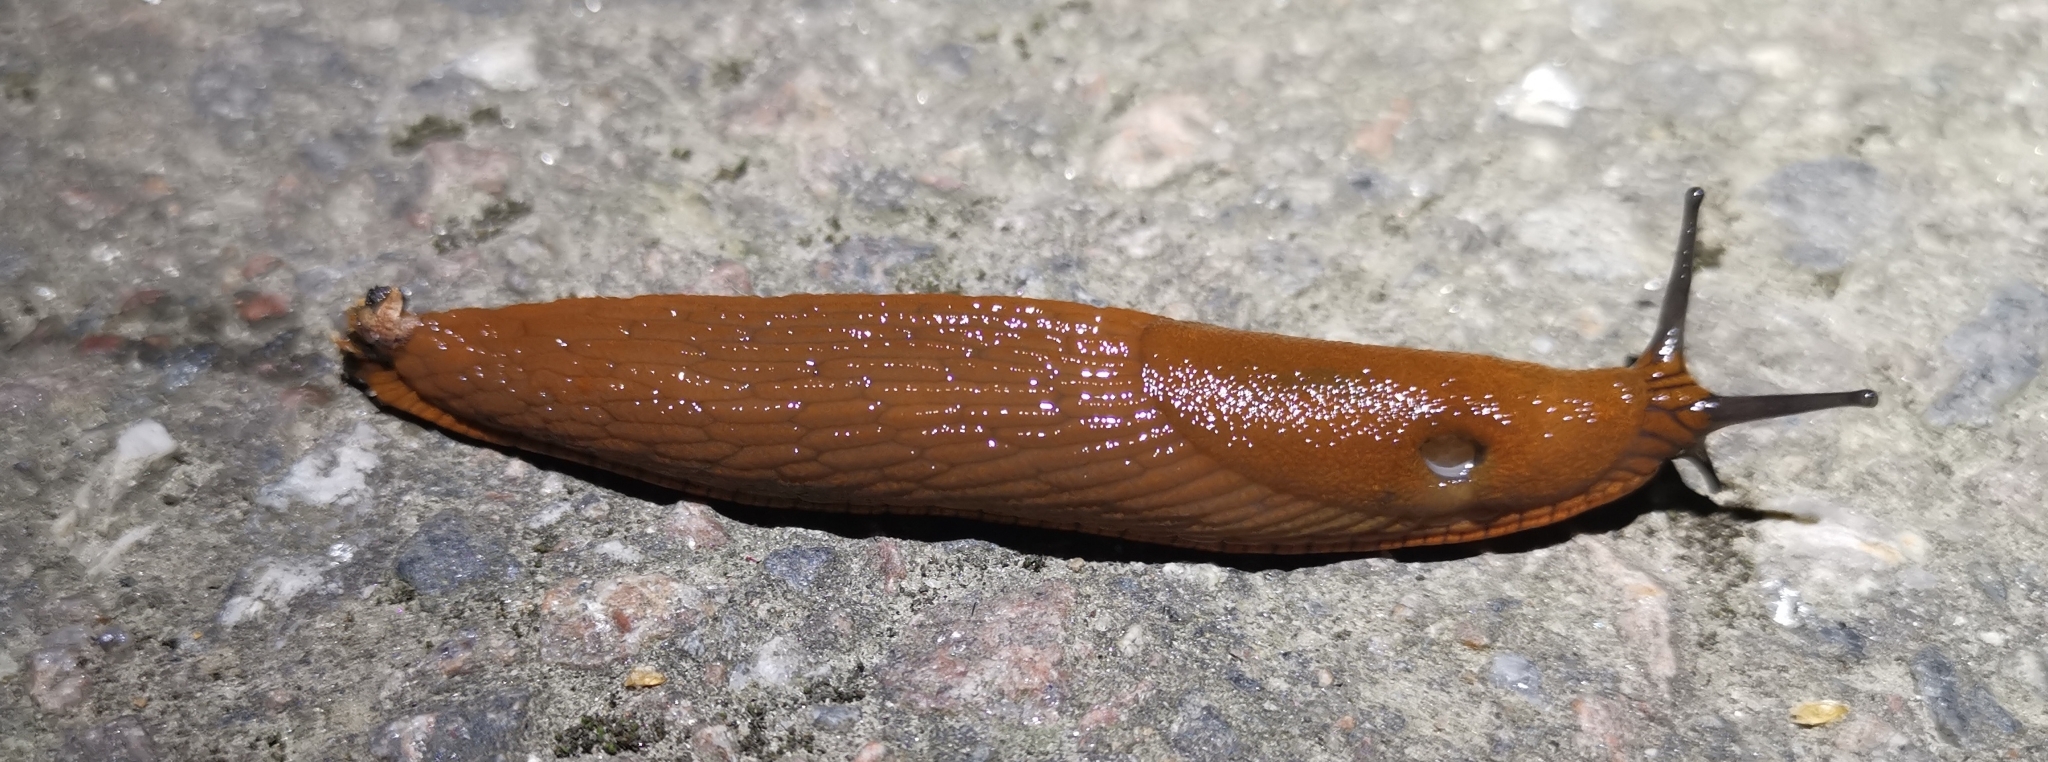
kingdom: Animalia
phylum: Mollusca
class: Gastropoda
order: Stylommatophora
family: Arionidae
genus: Arion
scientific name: Arion vulgaris
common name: Lusitanian slug
